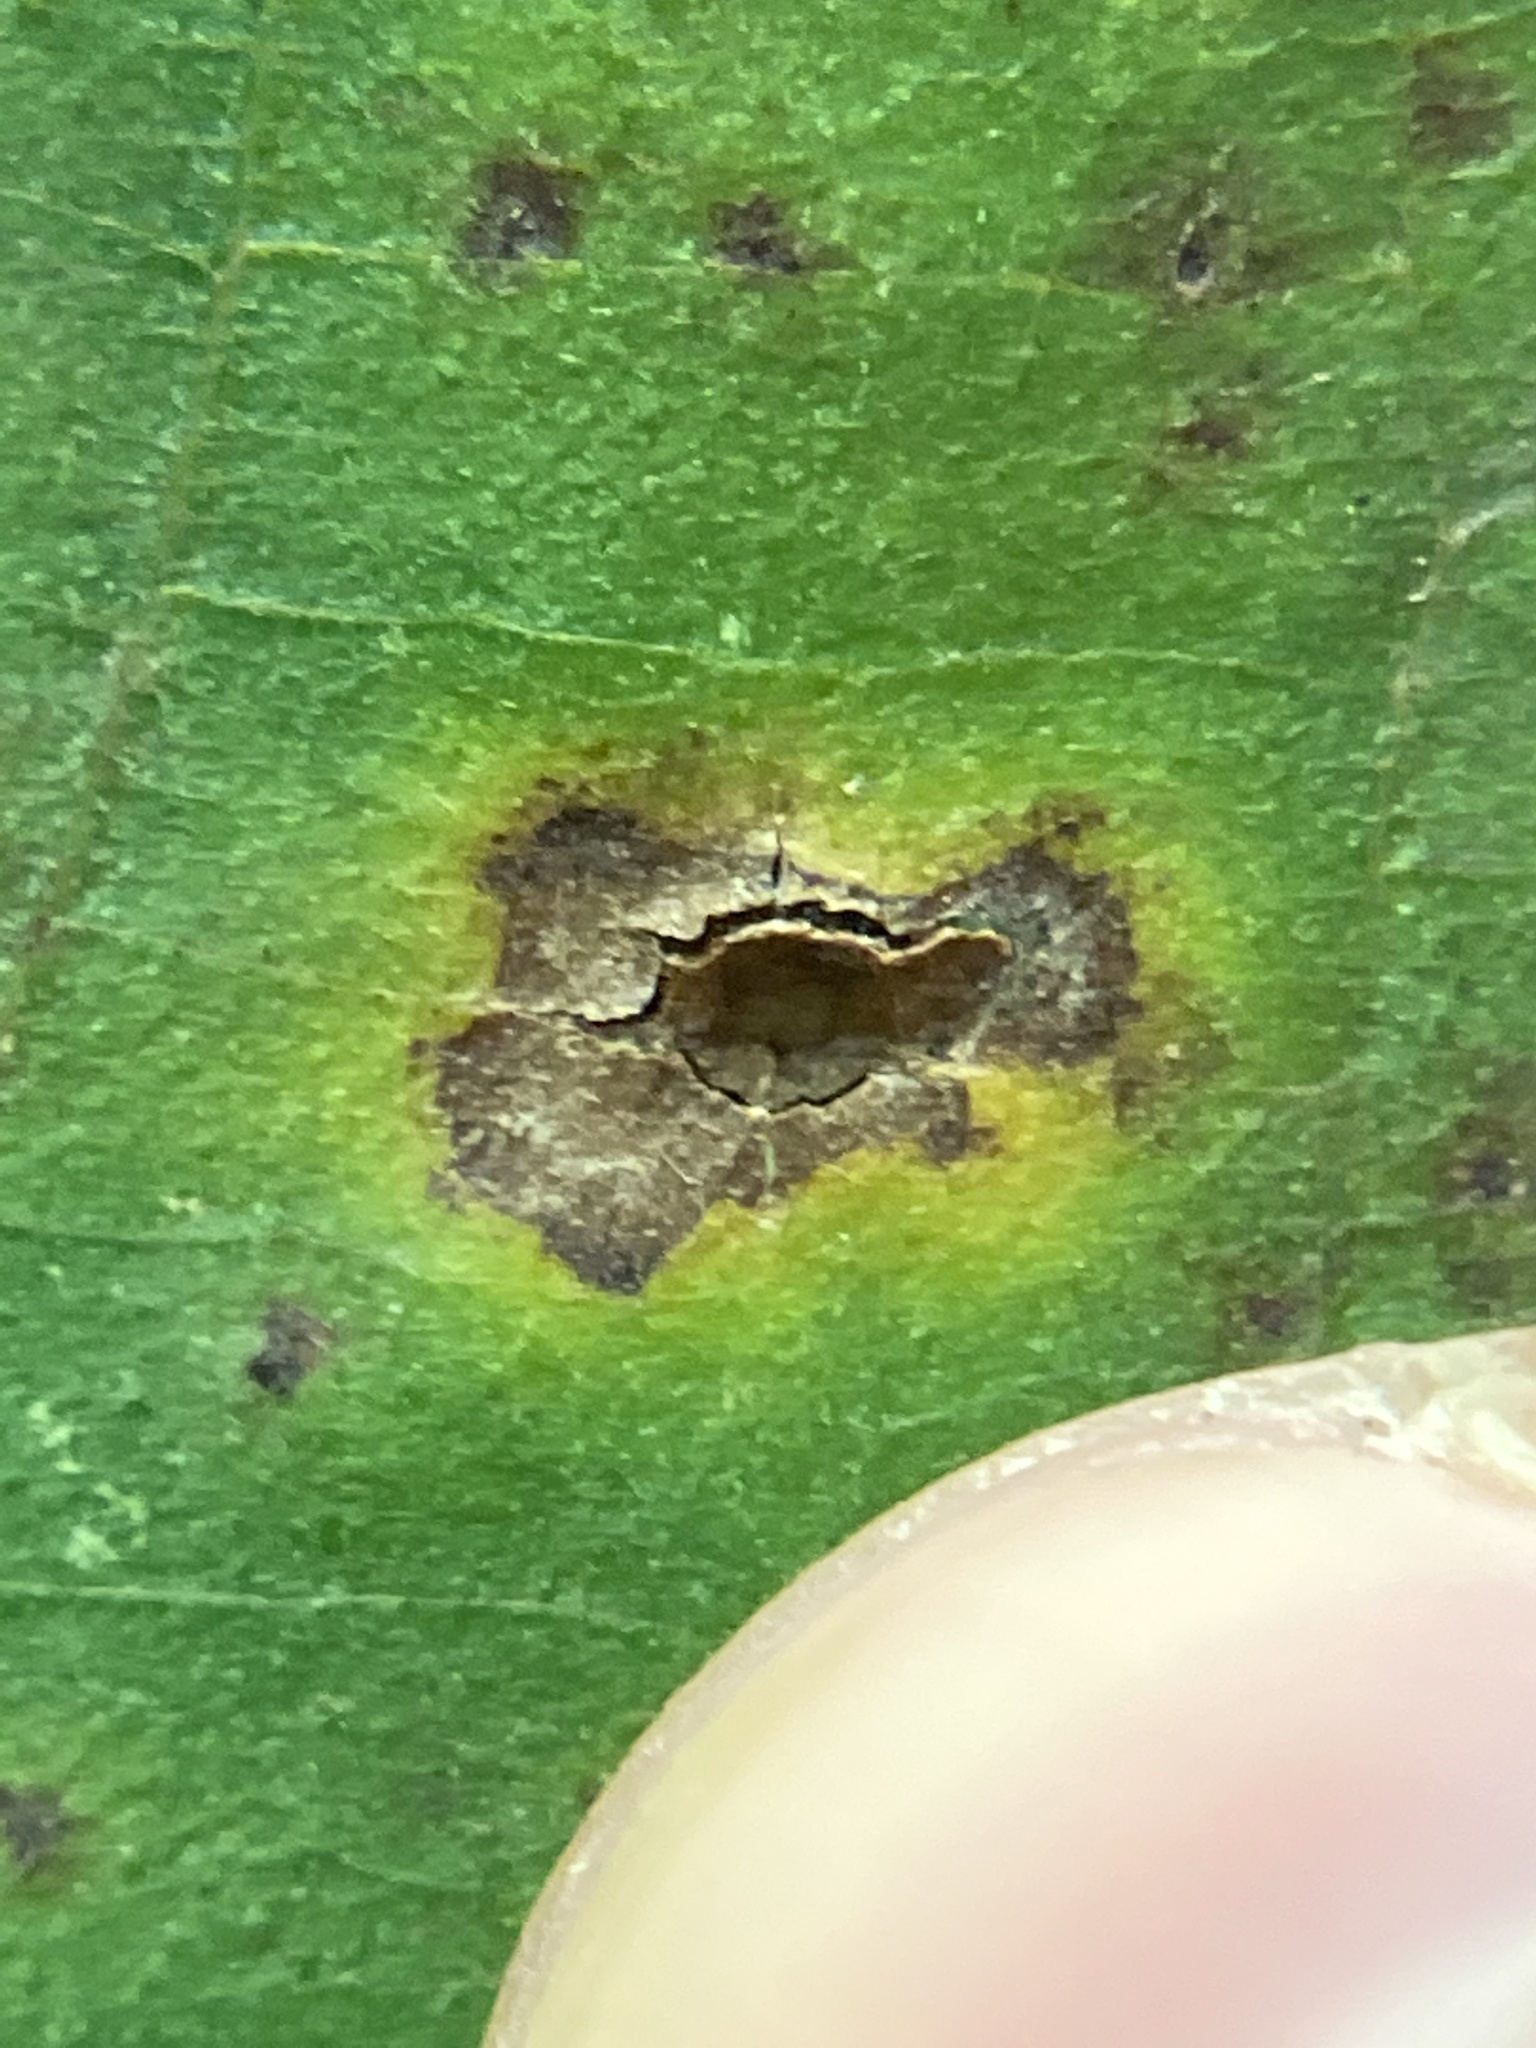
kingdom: Animalia
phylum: Arthropoda
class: Insecta
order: Diptera
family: Cecidomyiidae
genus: Caryomyia
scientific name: Caryomyia caryae
